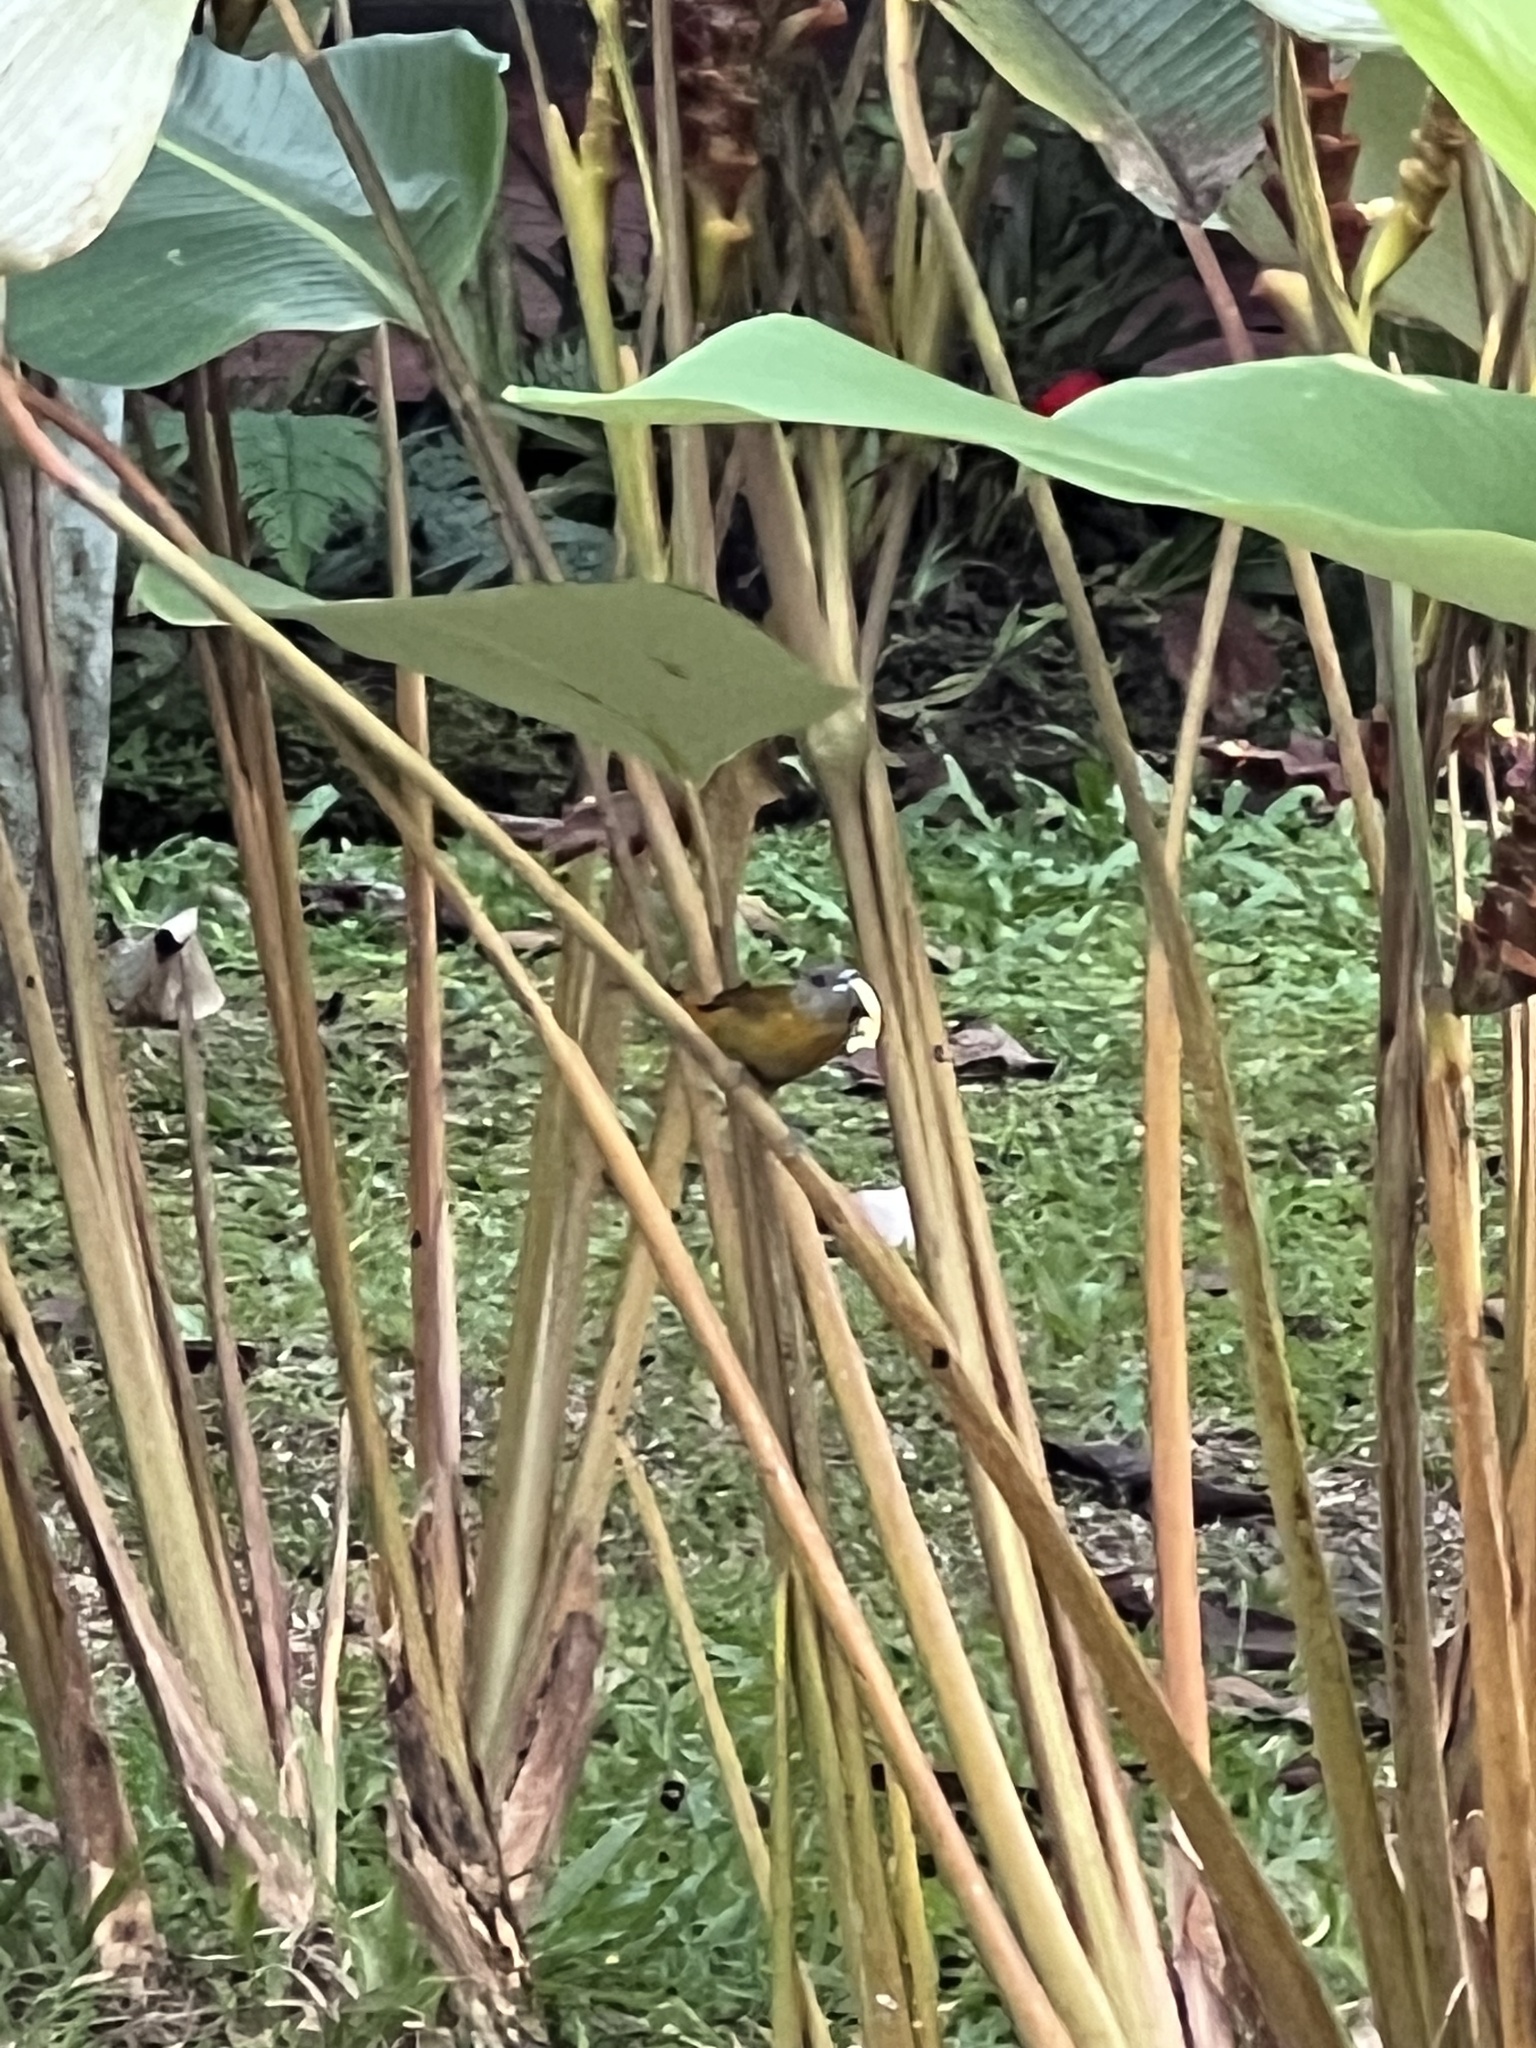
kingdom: Animalia
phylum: Chordata
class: Aves
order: Passeriformes
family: Thraupidae
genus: Ramphocelus
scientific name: Ramphocelus passerinii
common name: Passerini's tanager
